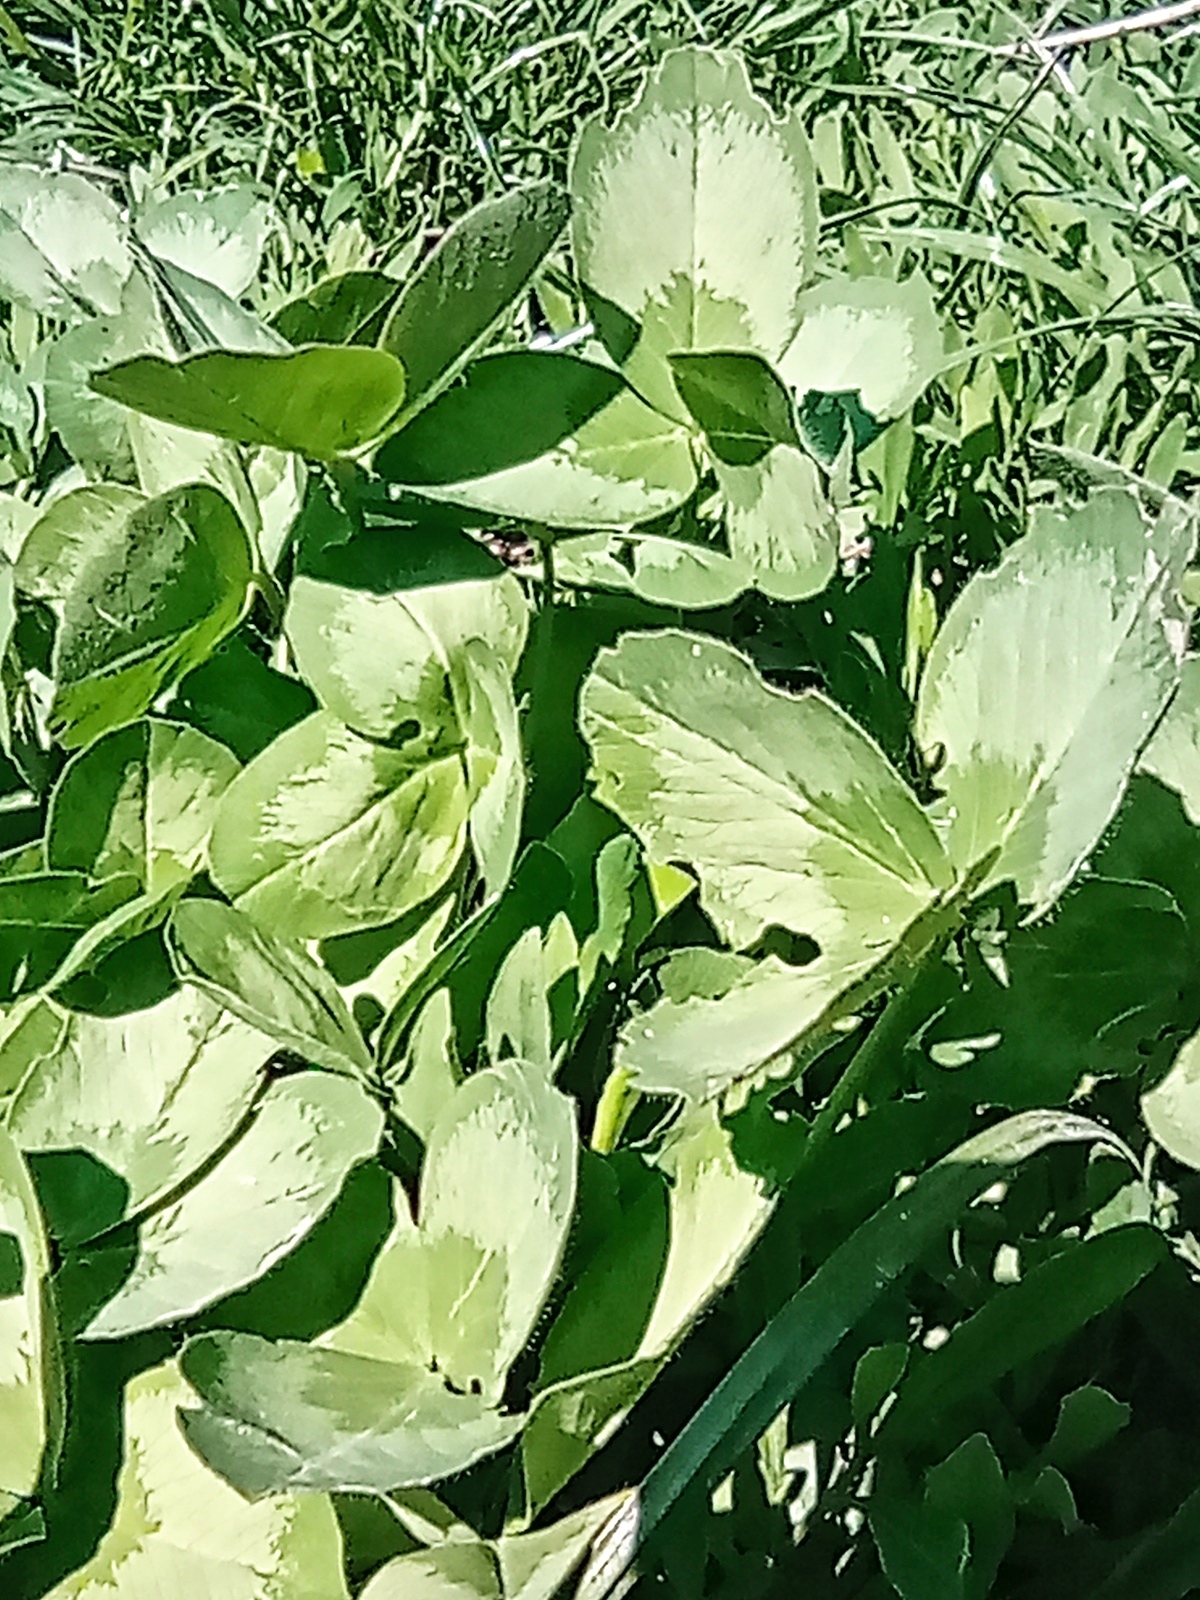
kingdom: Plantae
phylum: Tracheophyta
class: Magnoliopsida
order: Fabales
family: Fabaceae
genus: Trifolium
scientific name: Trifolium pratense
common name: Red clover
